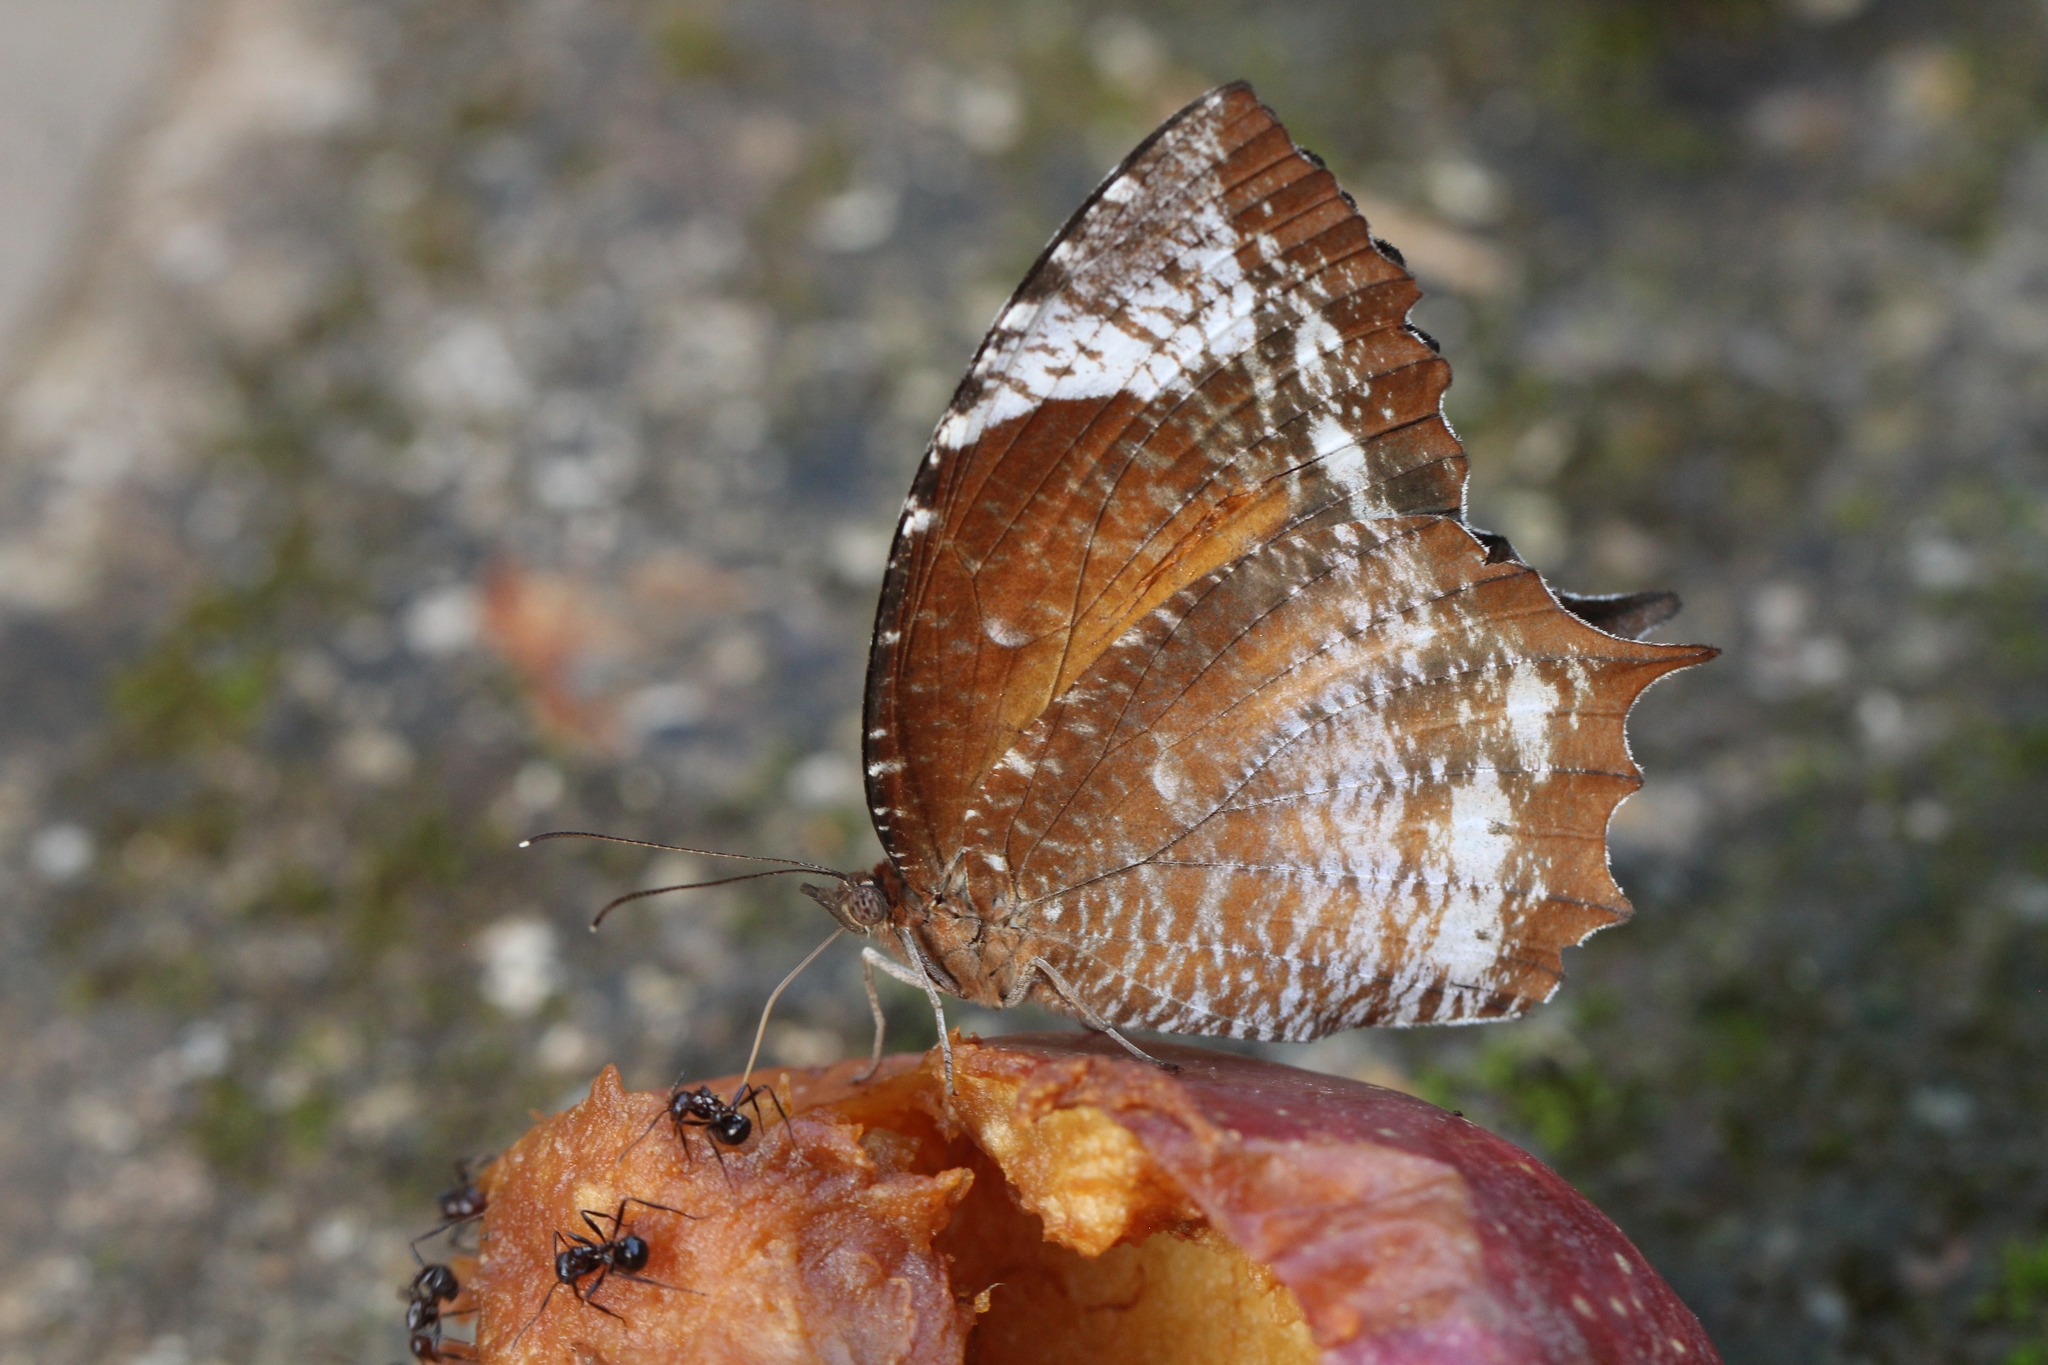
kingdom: Animalia
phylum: Arthropoda
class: Insecta
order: Lepidoptera
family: Nymphalidae
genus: Elymnias
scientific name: Elymnias caudata
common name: Tailed palmfly
